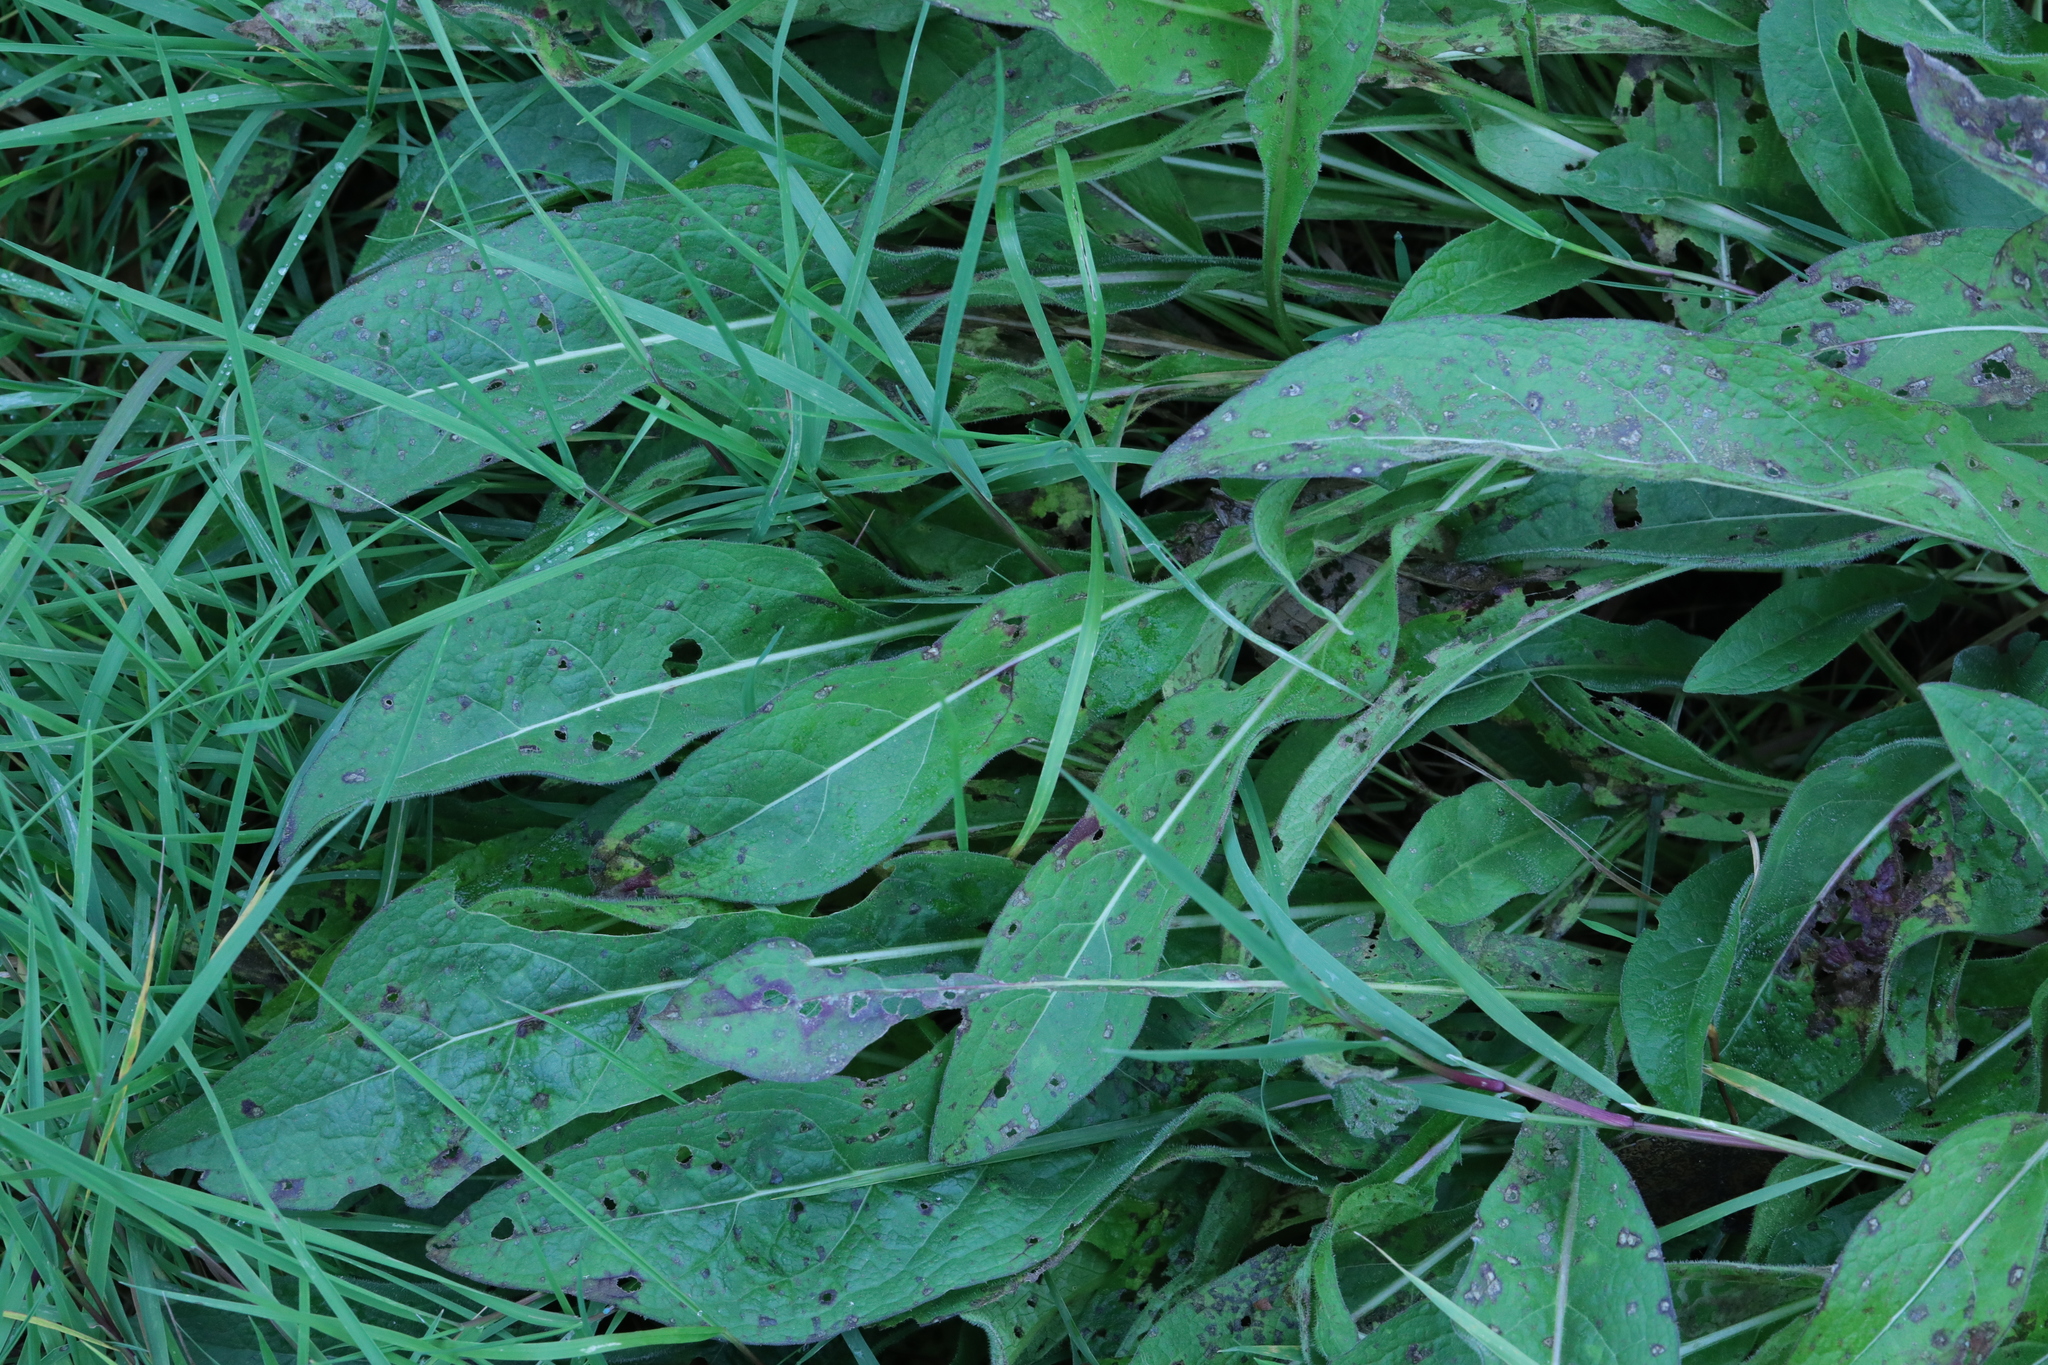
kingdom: Plantae
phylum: Tracheophyta
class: Magnoliopsida
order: Asterales
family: Asteraceae
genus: Centaurea
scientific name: Centaurea nigra
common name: Lesser knapweed
